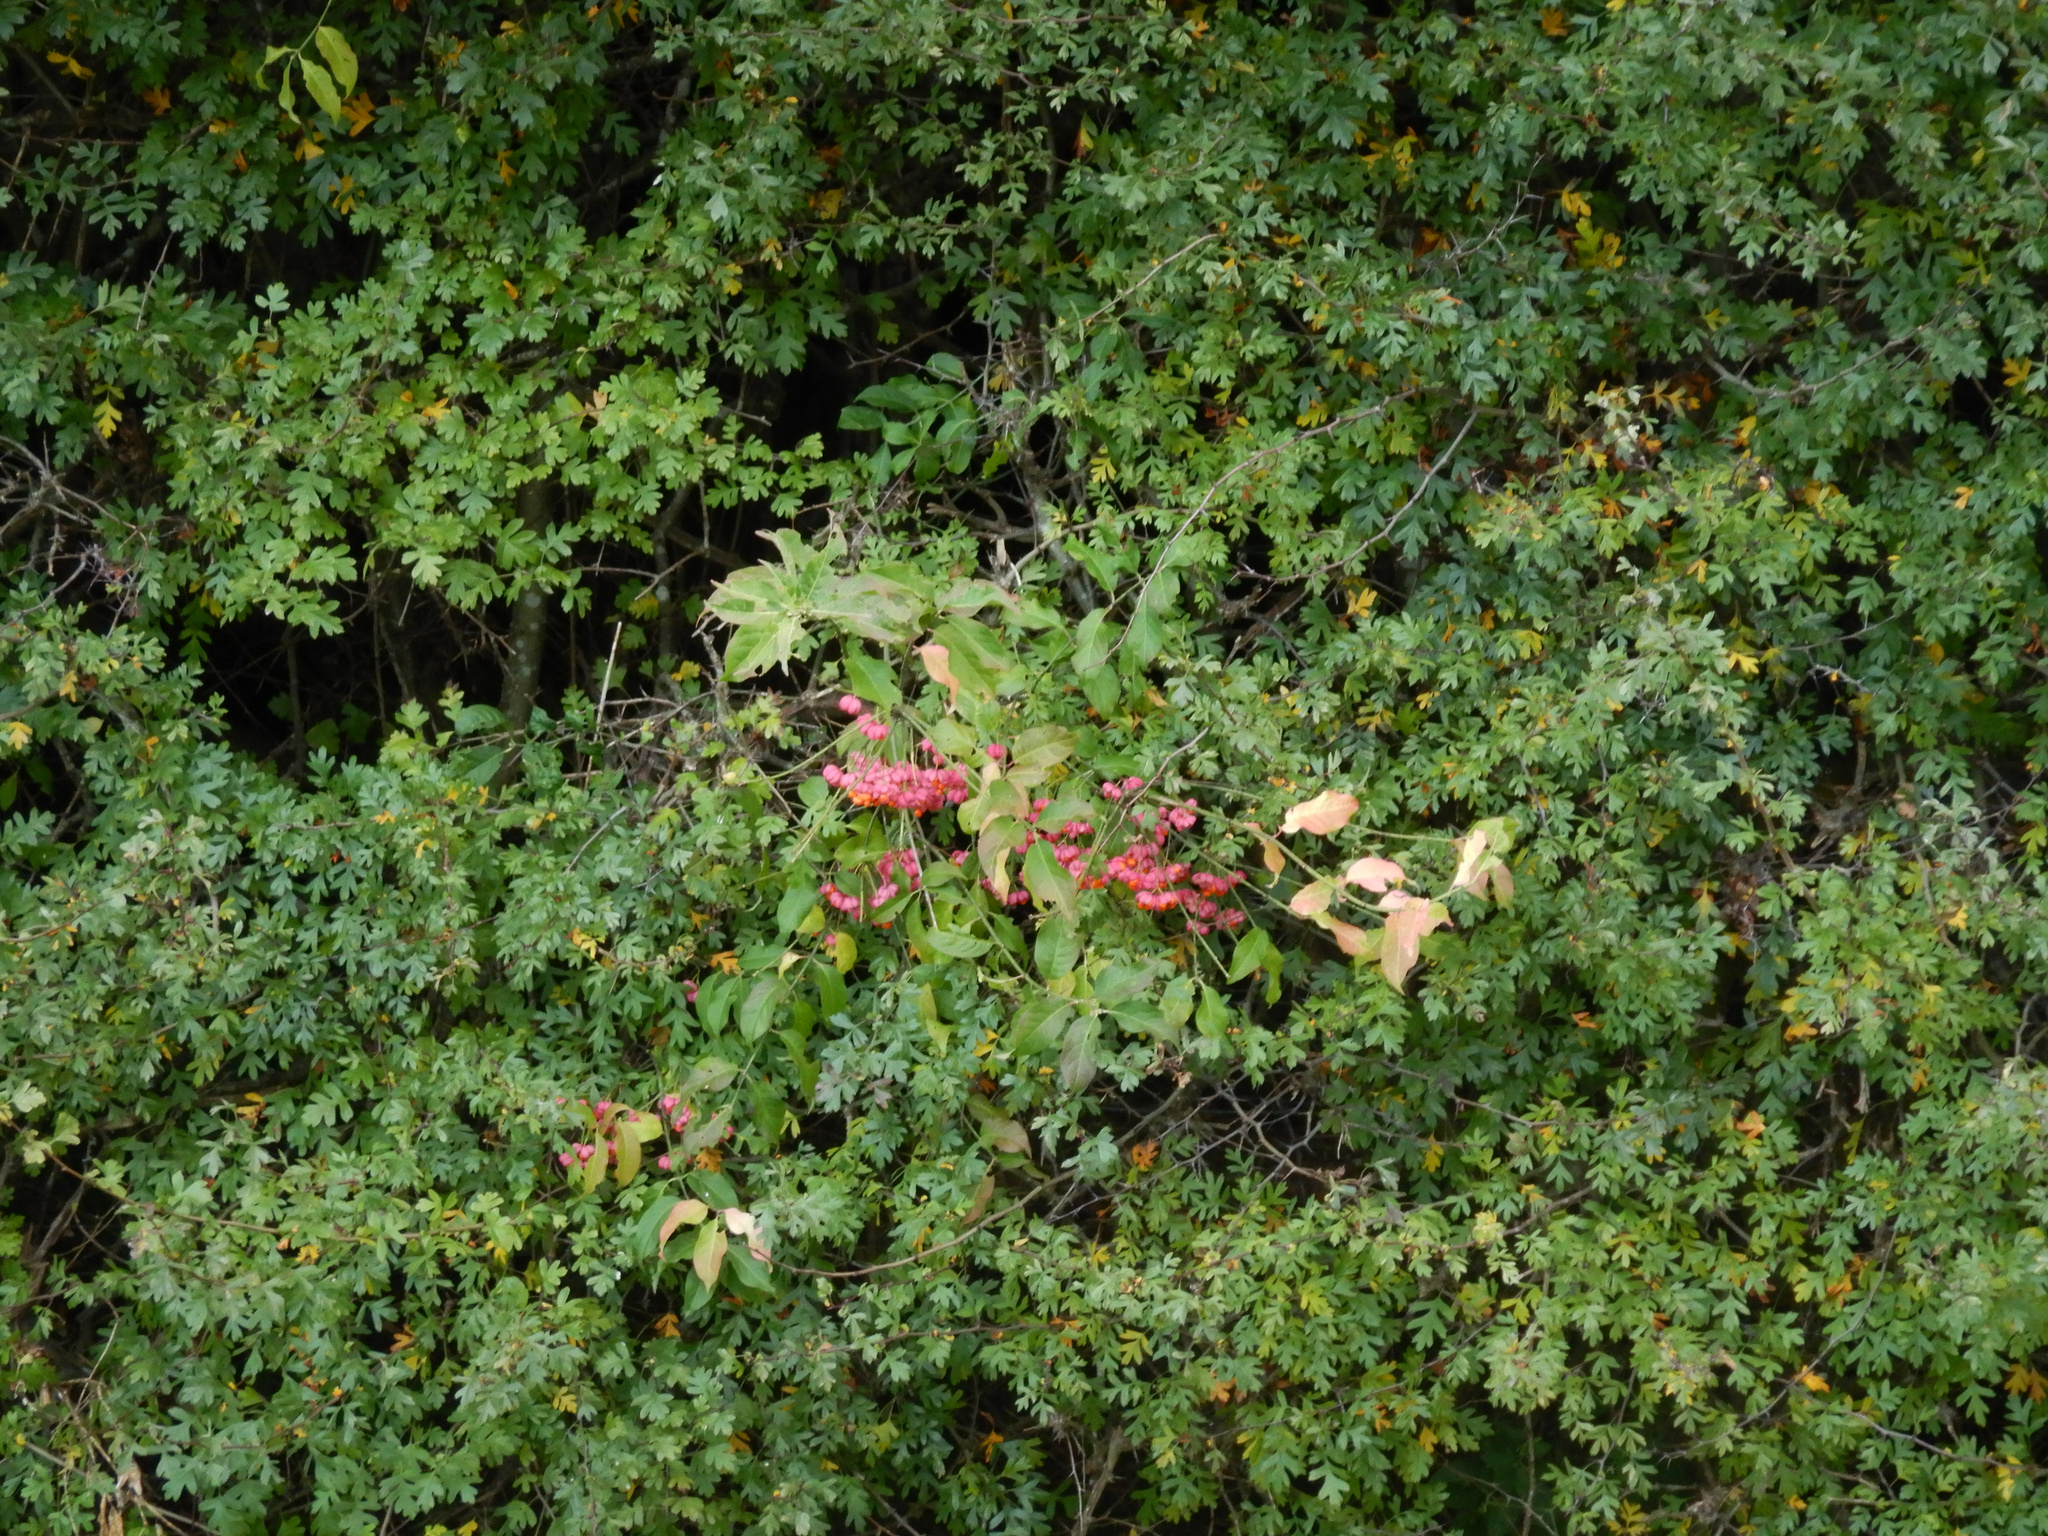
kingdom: Plantae
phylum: Tracheophyta
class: Magnoliopsida
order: Celastrales
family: Celastraceae
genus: Euonymus
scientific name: Euonymus europaeus
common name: Spindle
